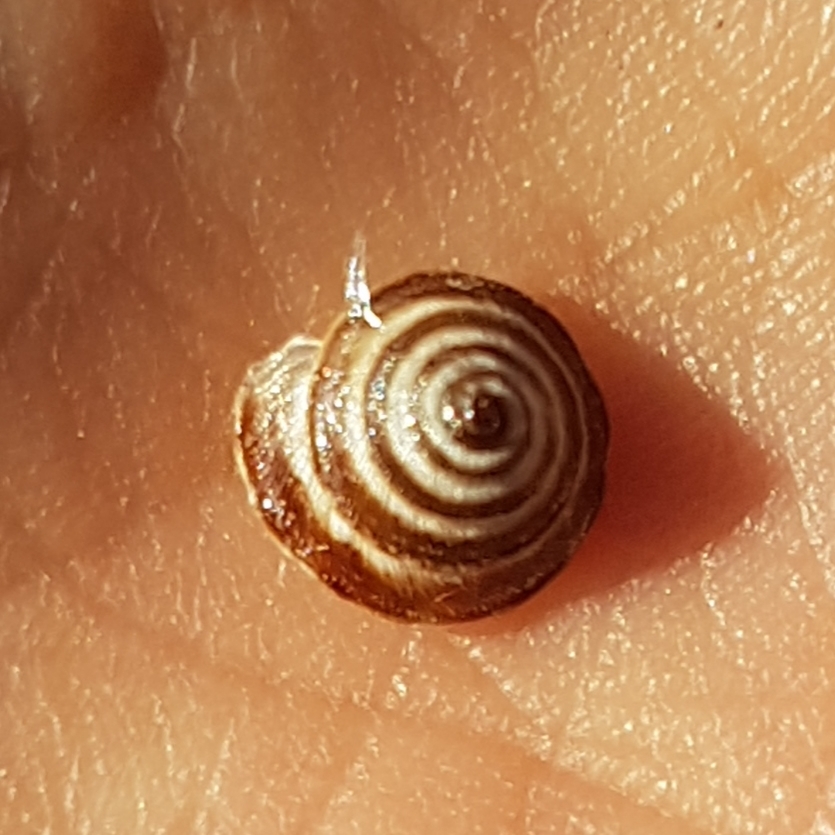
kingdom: Animalia
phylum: Mollusca
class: Gastropoda
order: Stylommatophora
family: Geomitridae
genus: Trochoidea
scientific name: Trochoidea elegans
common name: Elegant helicellid
